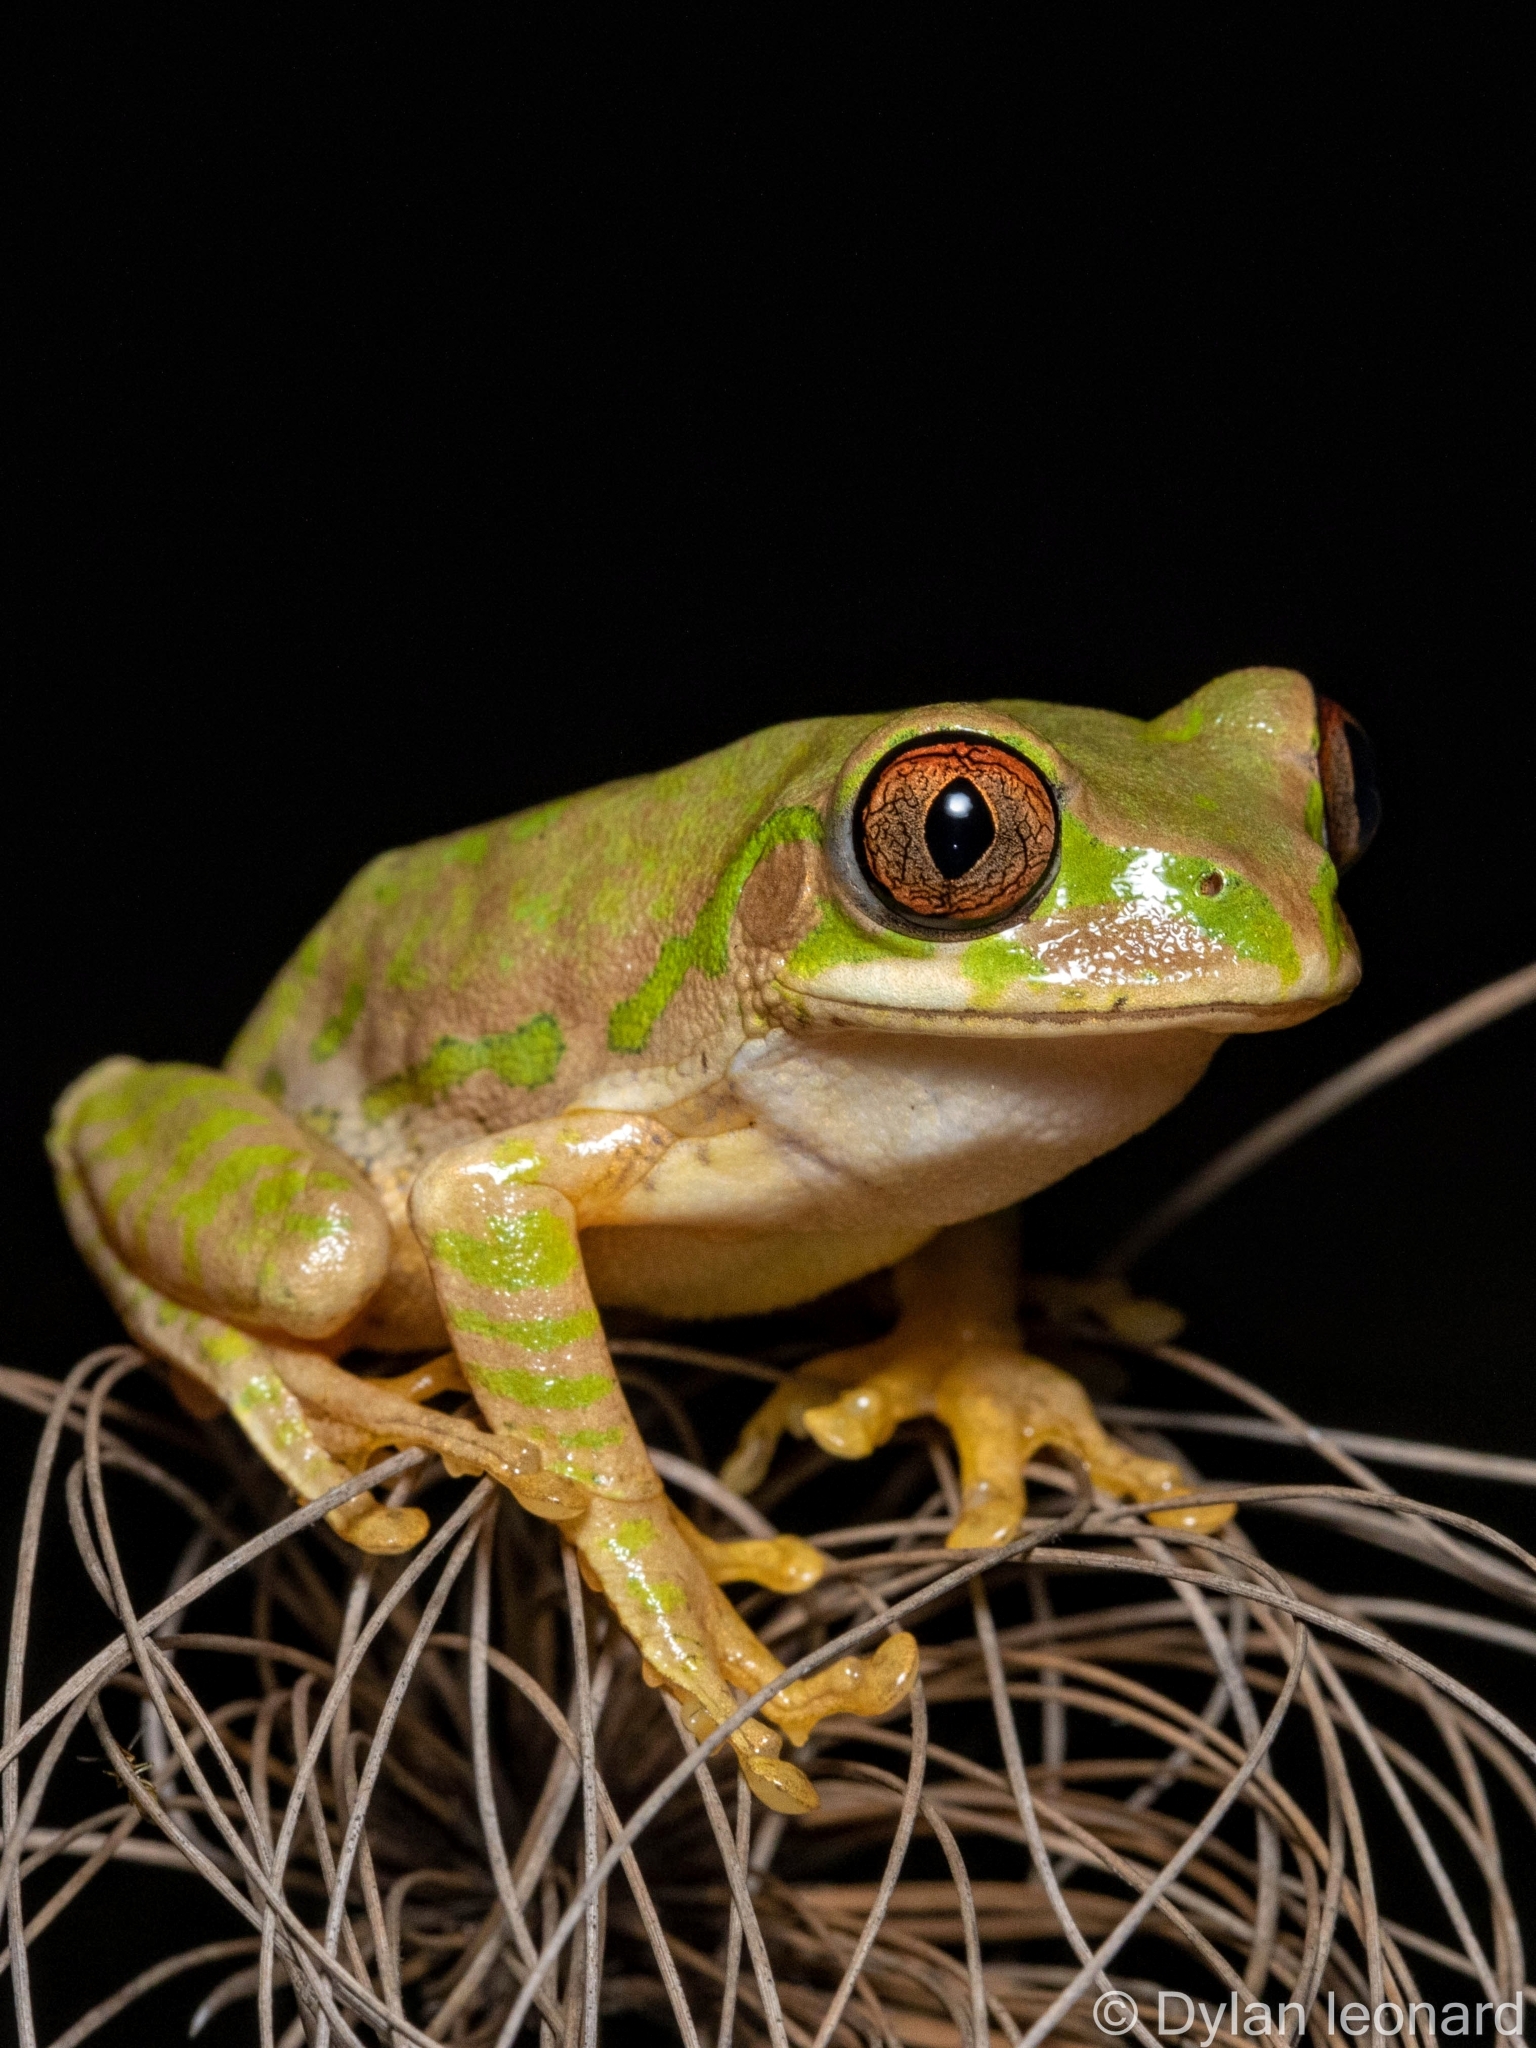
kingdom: Animalia
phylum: Chordata
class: Amphibia
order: Anura
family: Arthroleptidae
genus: Leptopelis
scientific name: Leptopelis natalensis
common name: Natal tree frog
